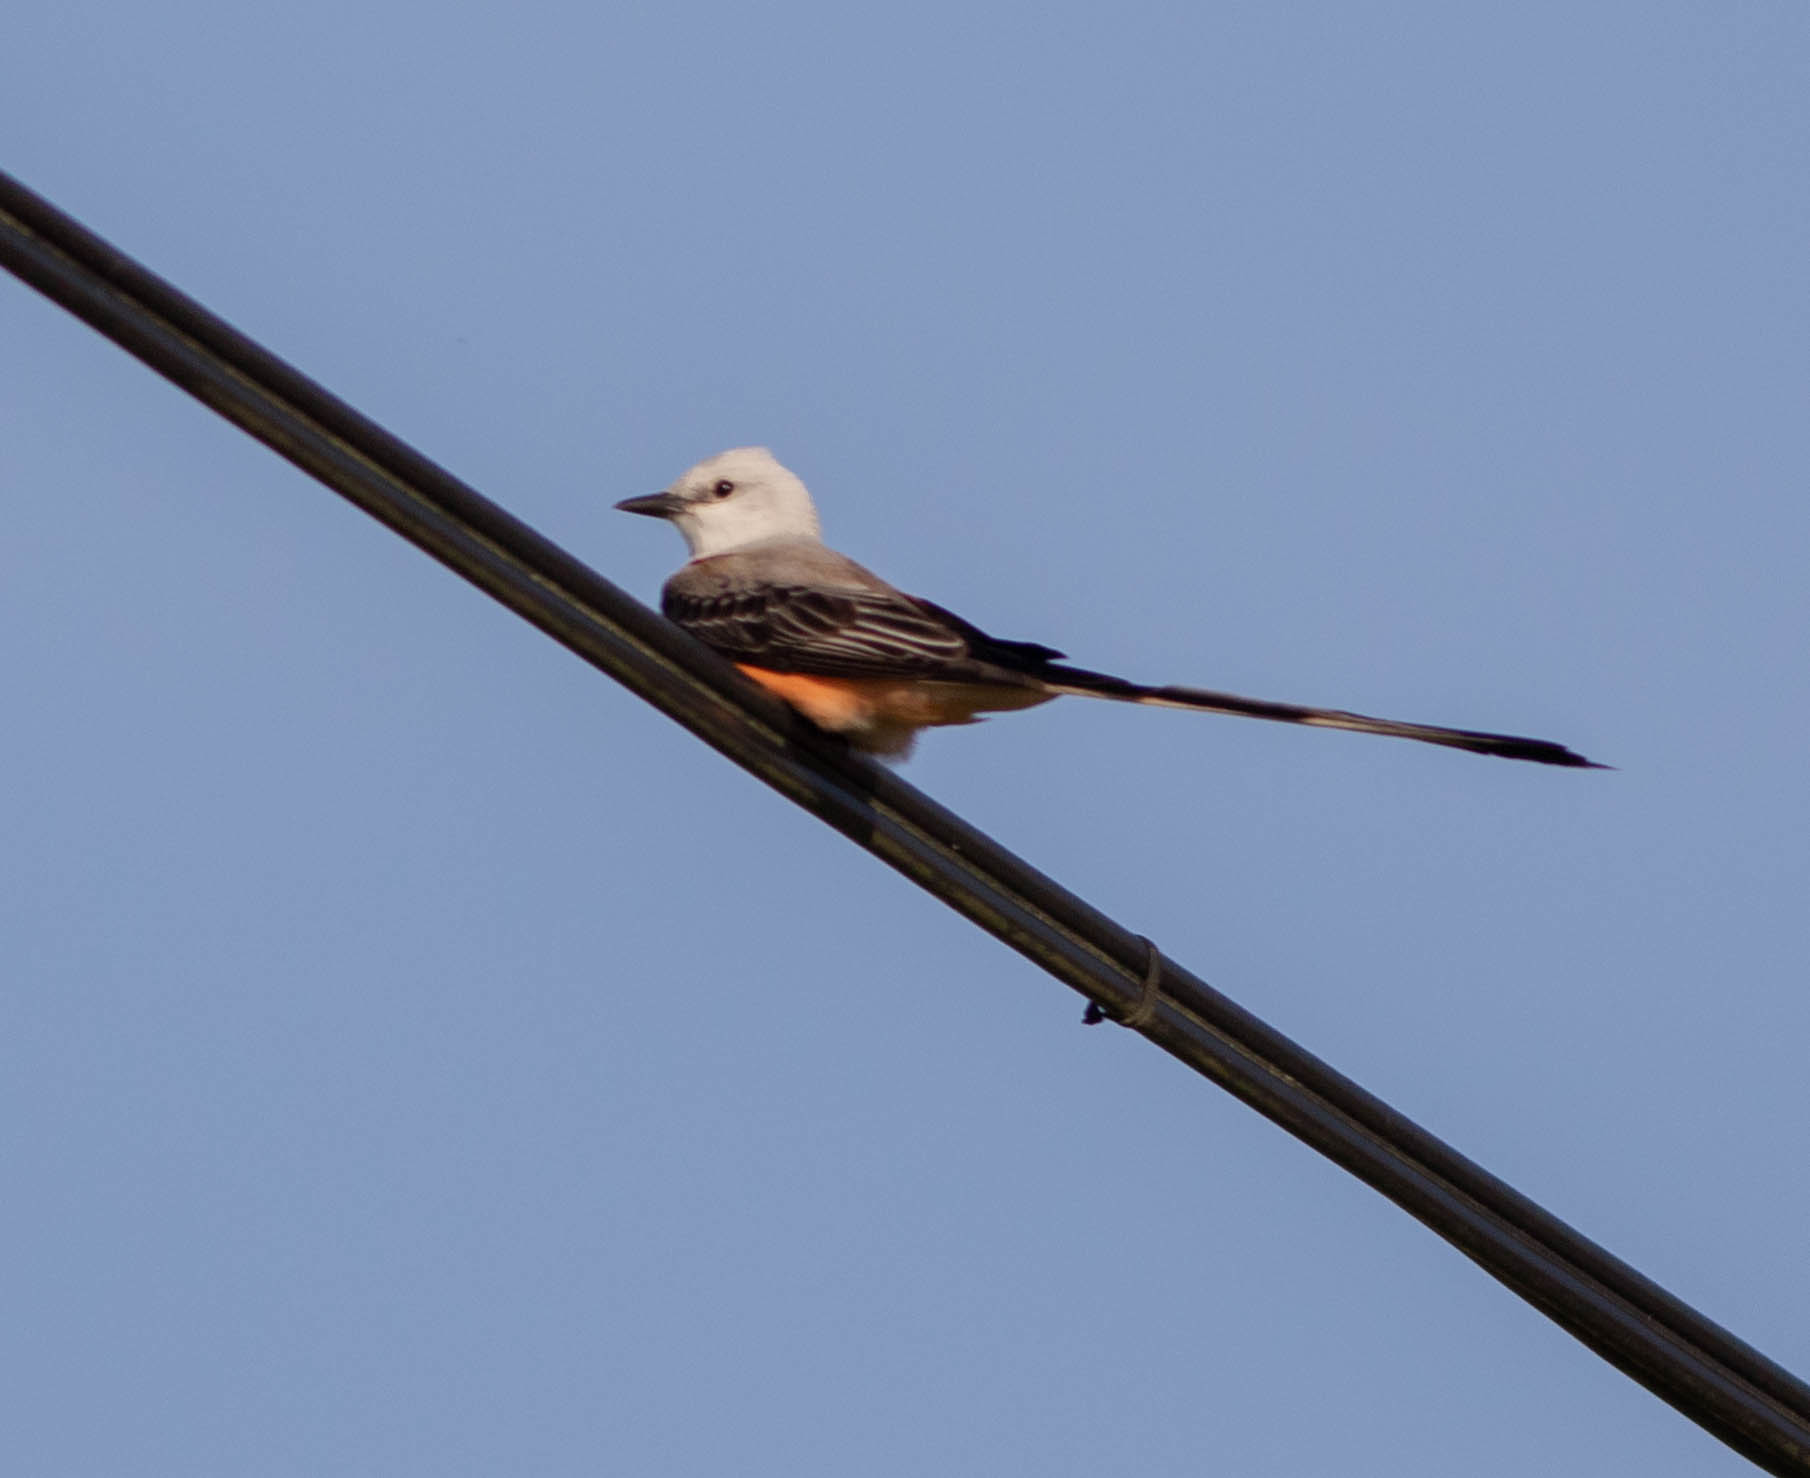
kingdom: Animalia
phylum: Chordata
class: Aves
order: Passeriformes
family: Tyrannidae
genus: Tyrannus
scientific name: Tyrannus forficatus
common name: Scissor-tailed flycatcher
